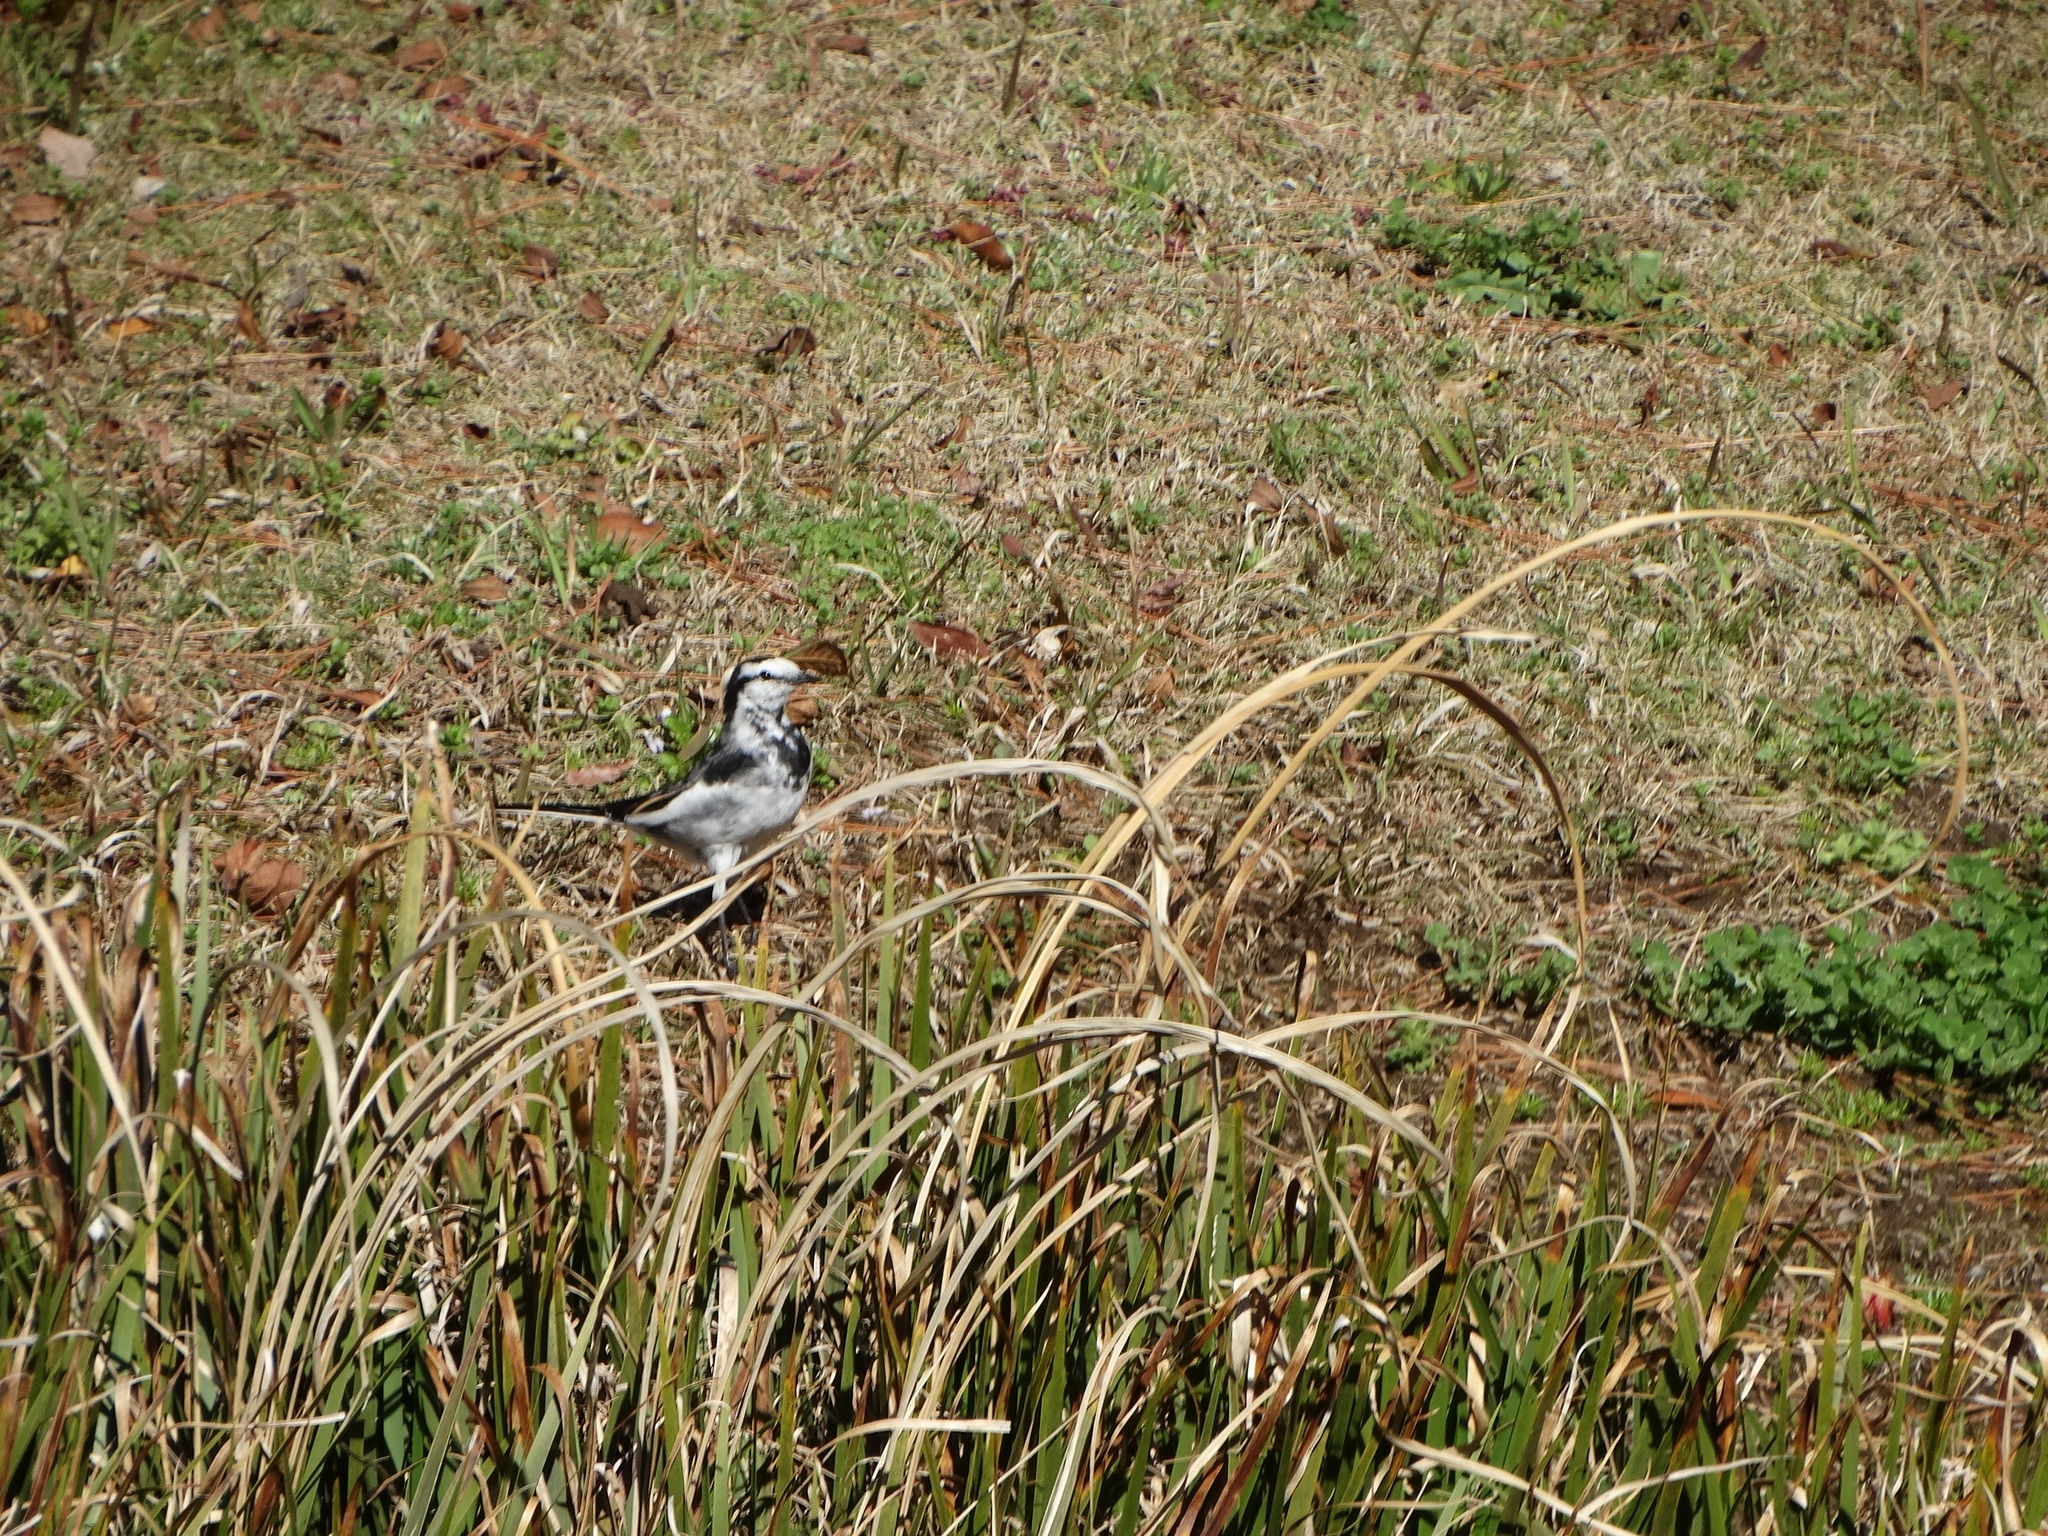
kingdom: Animalia
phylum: Chordata
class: Aves
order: Passeriformes
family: Motacillidae
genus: Motacilla
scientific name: Motacilla alba
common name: White wagtail
